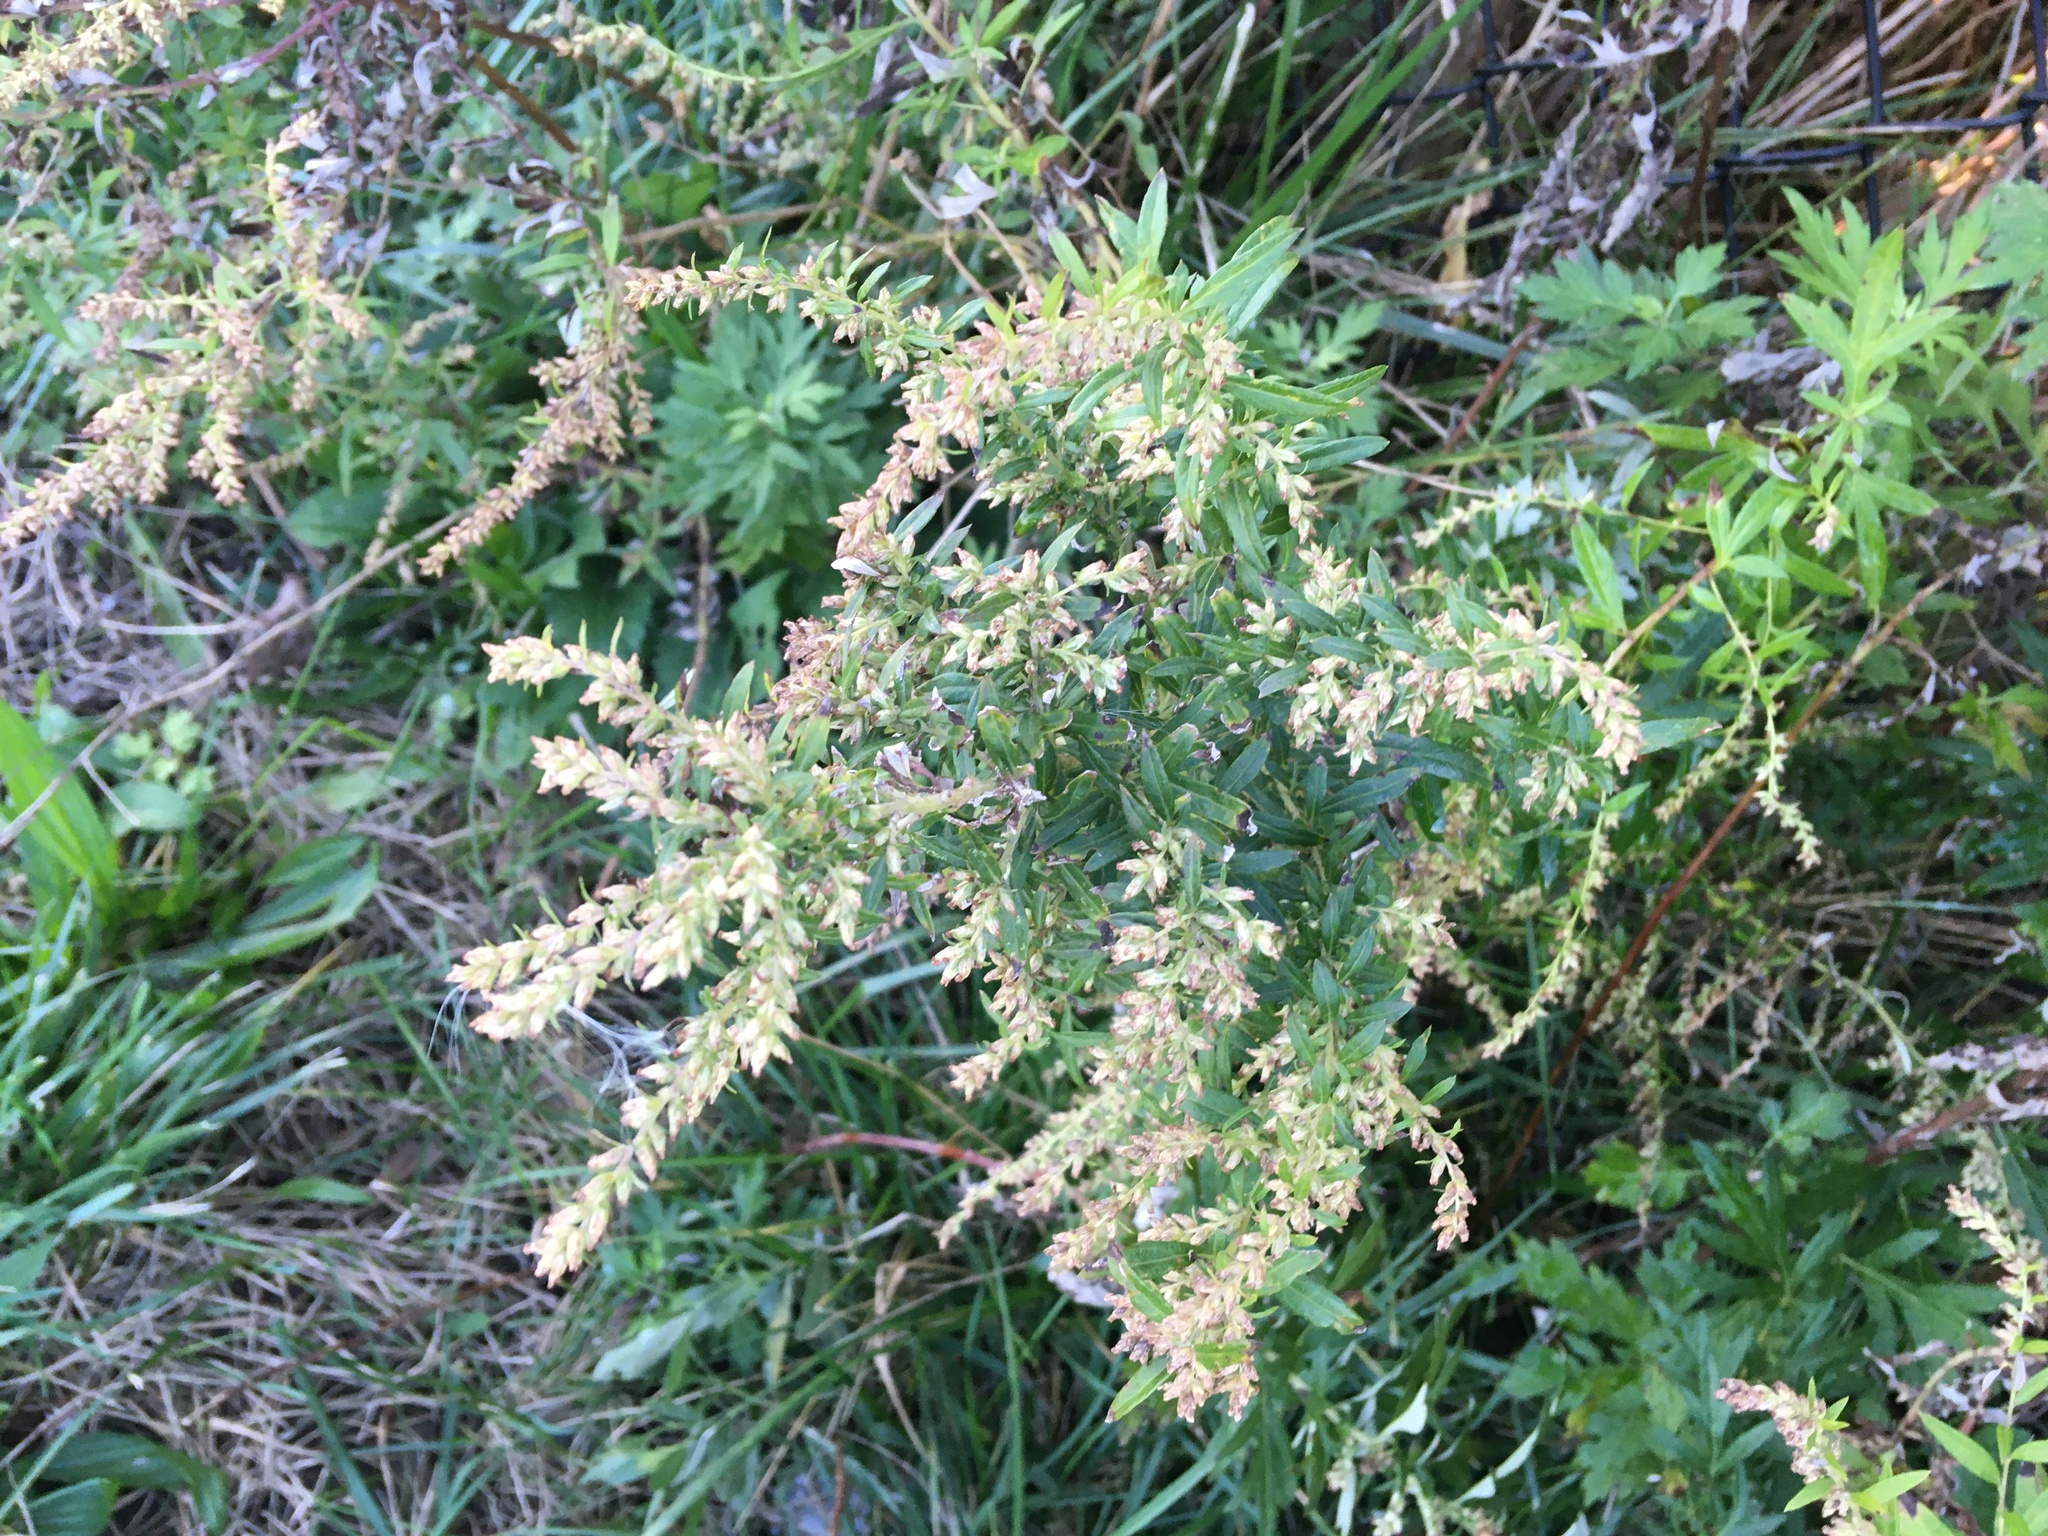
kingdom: Plantae
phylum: Tracheophyta
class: Magnoliopsida
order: Asterales
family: Asteraceae
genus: Artemisia
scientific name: Artemisia vulgaris
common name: Mugwort
